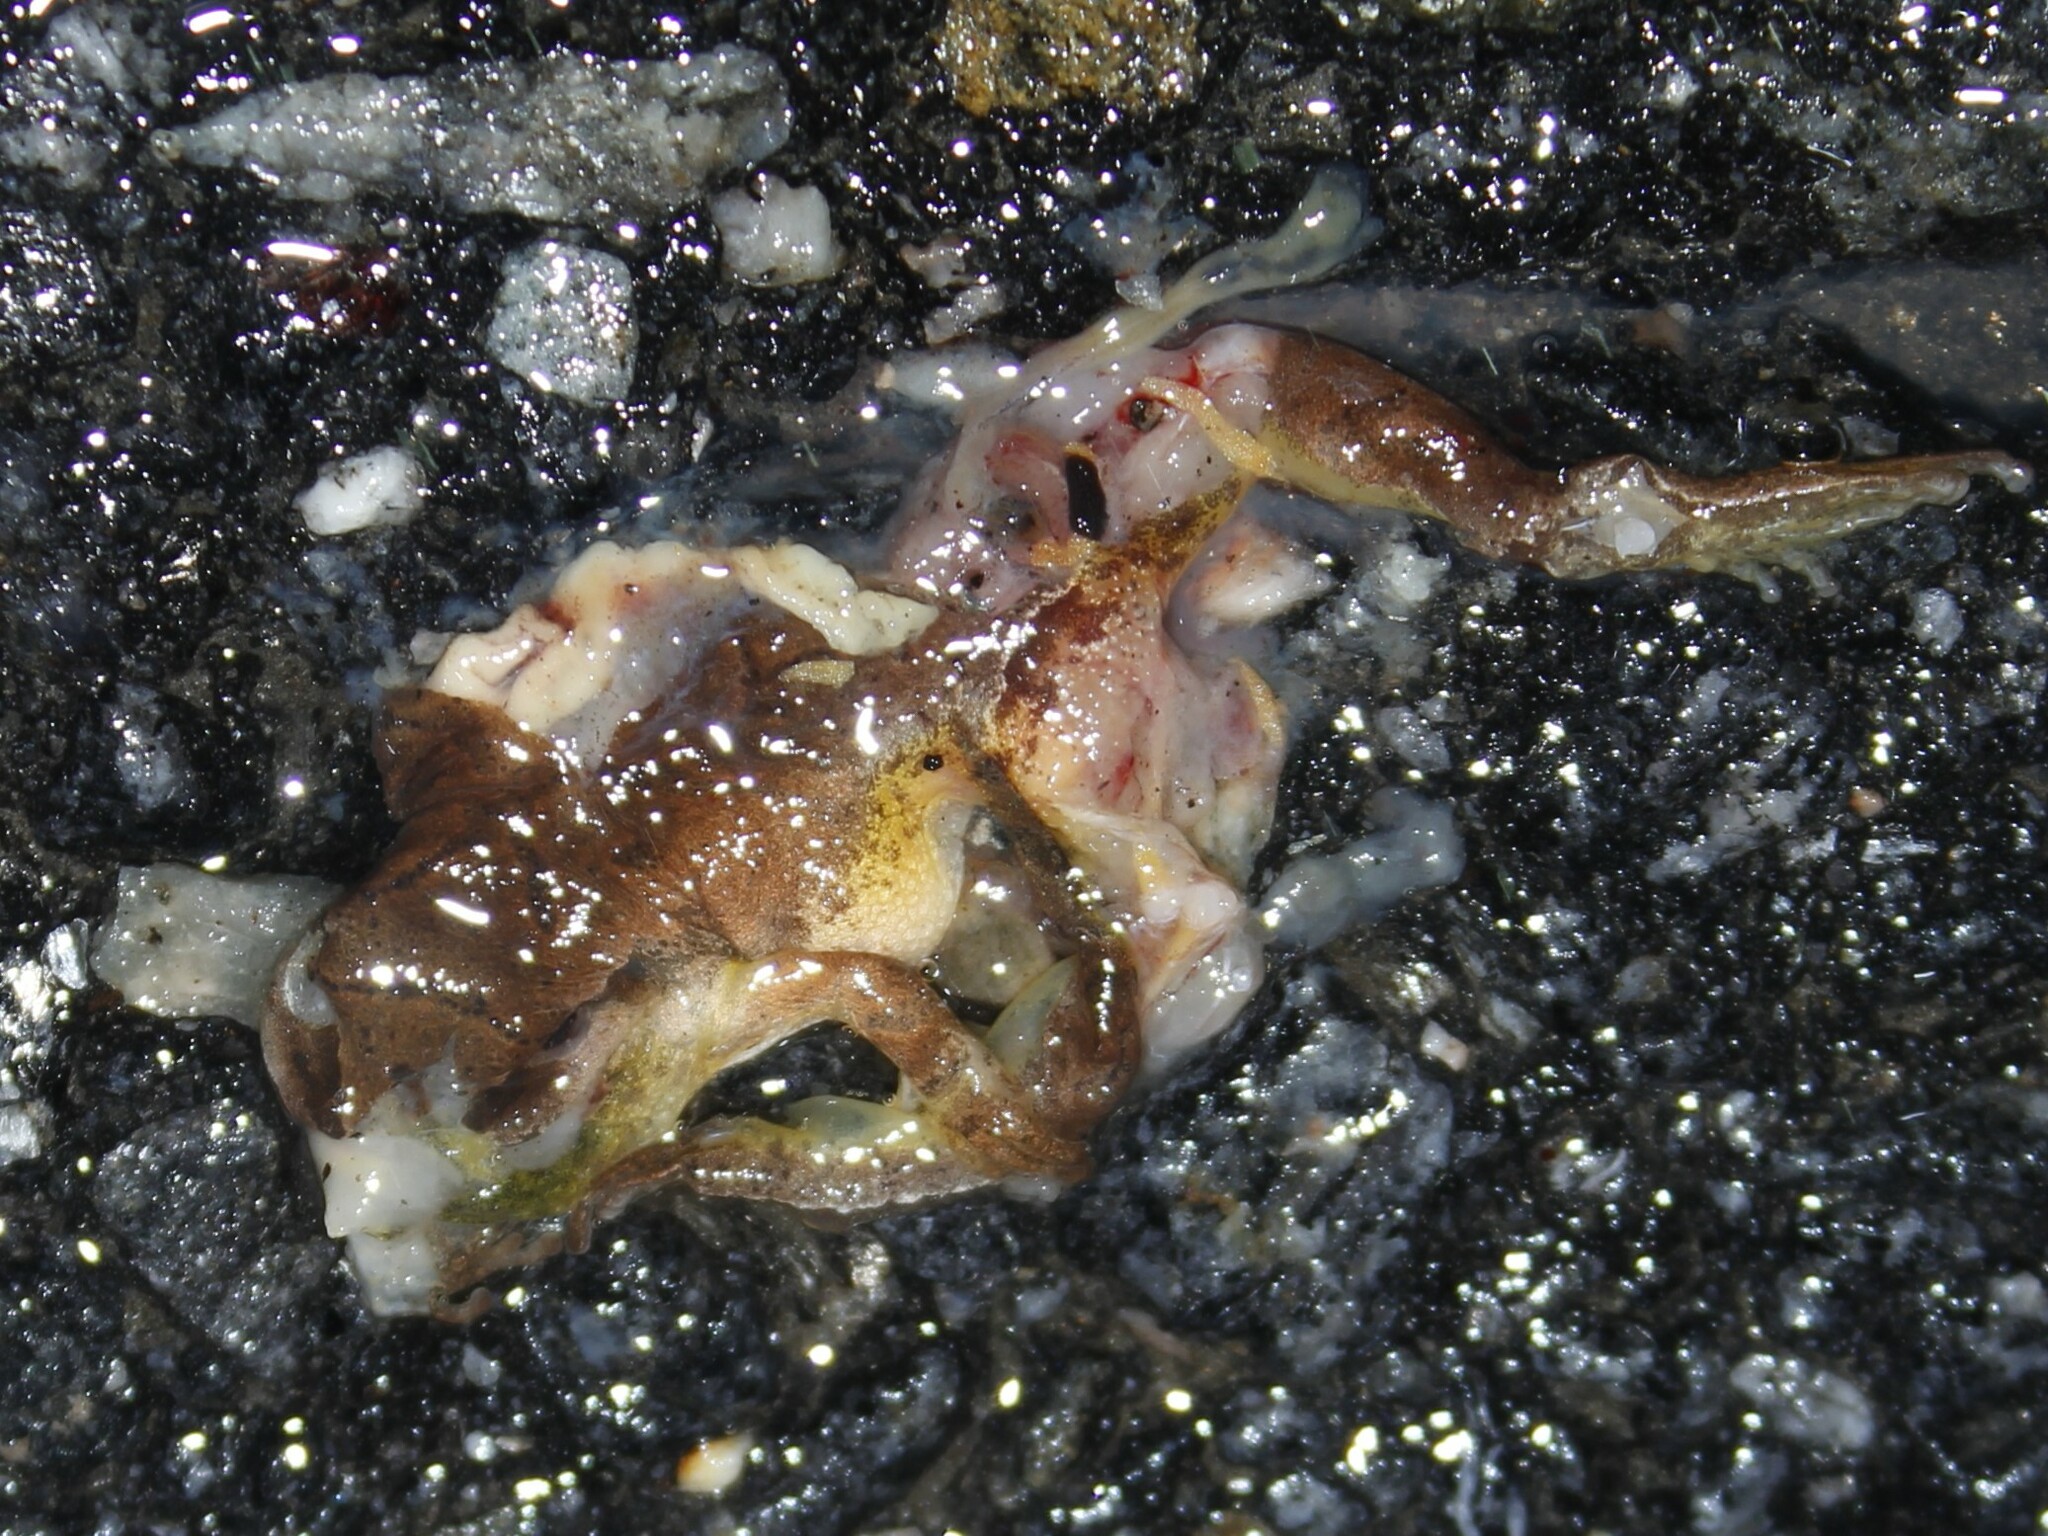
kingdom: Animalia
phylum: Chordata
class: Amphibia
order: Anura
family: Hylidae
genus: Pseudacris
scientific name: Pseudacris crucifer
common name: Spring peeper
